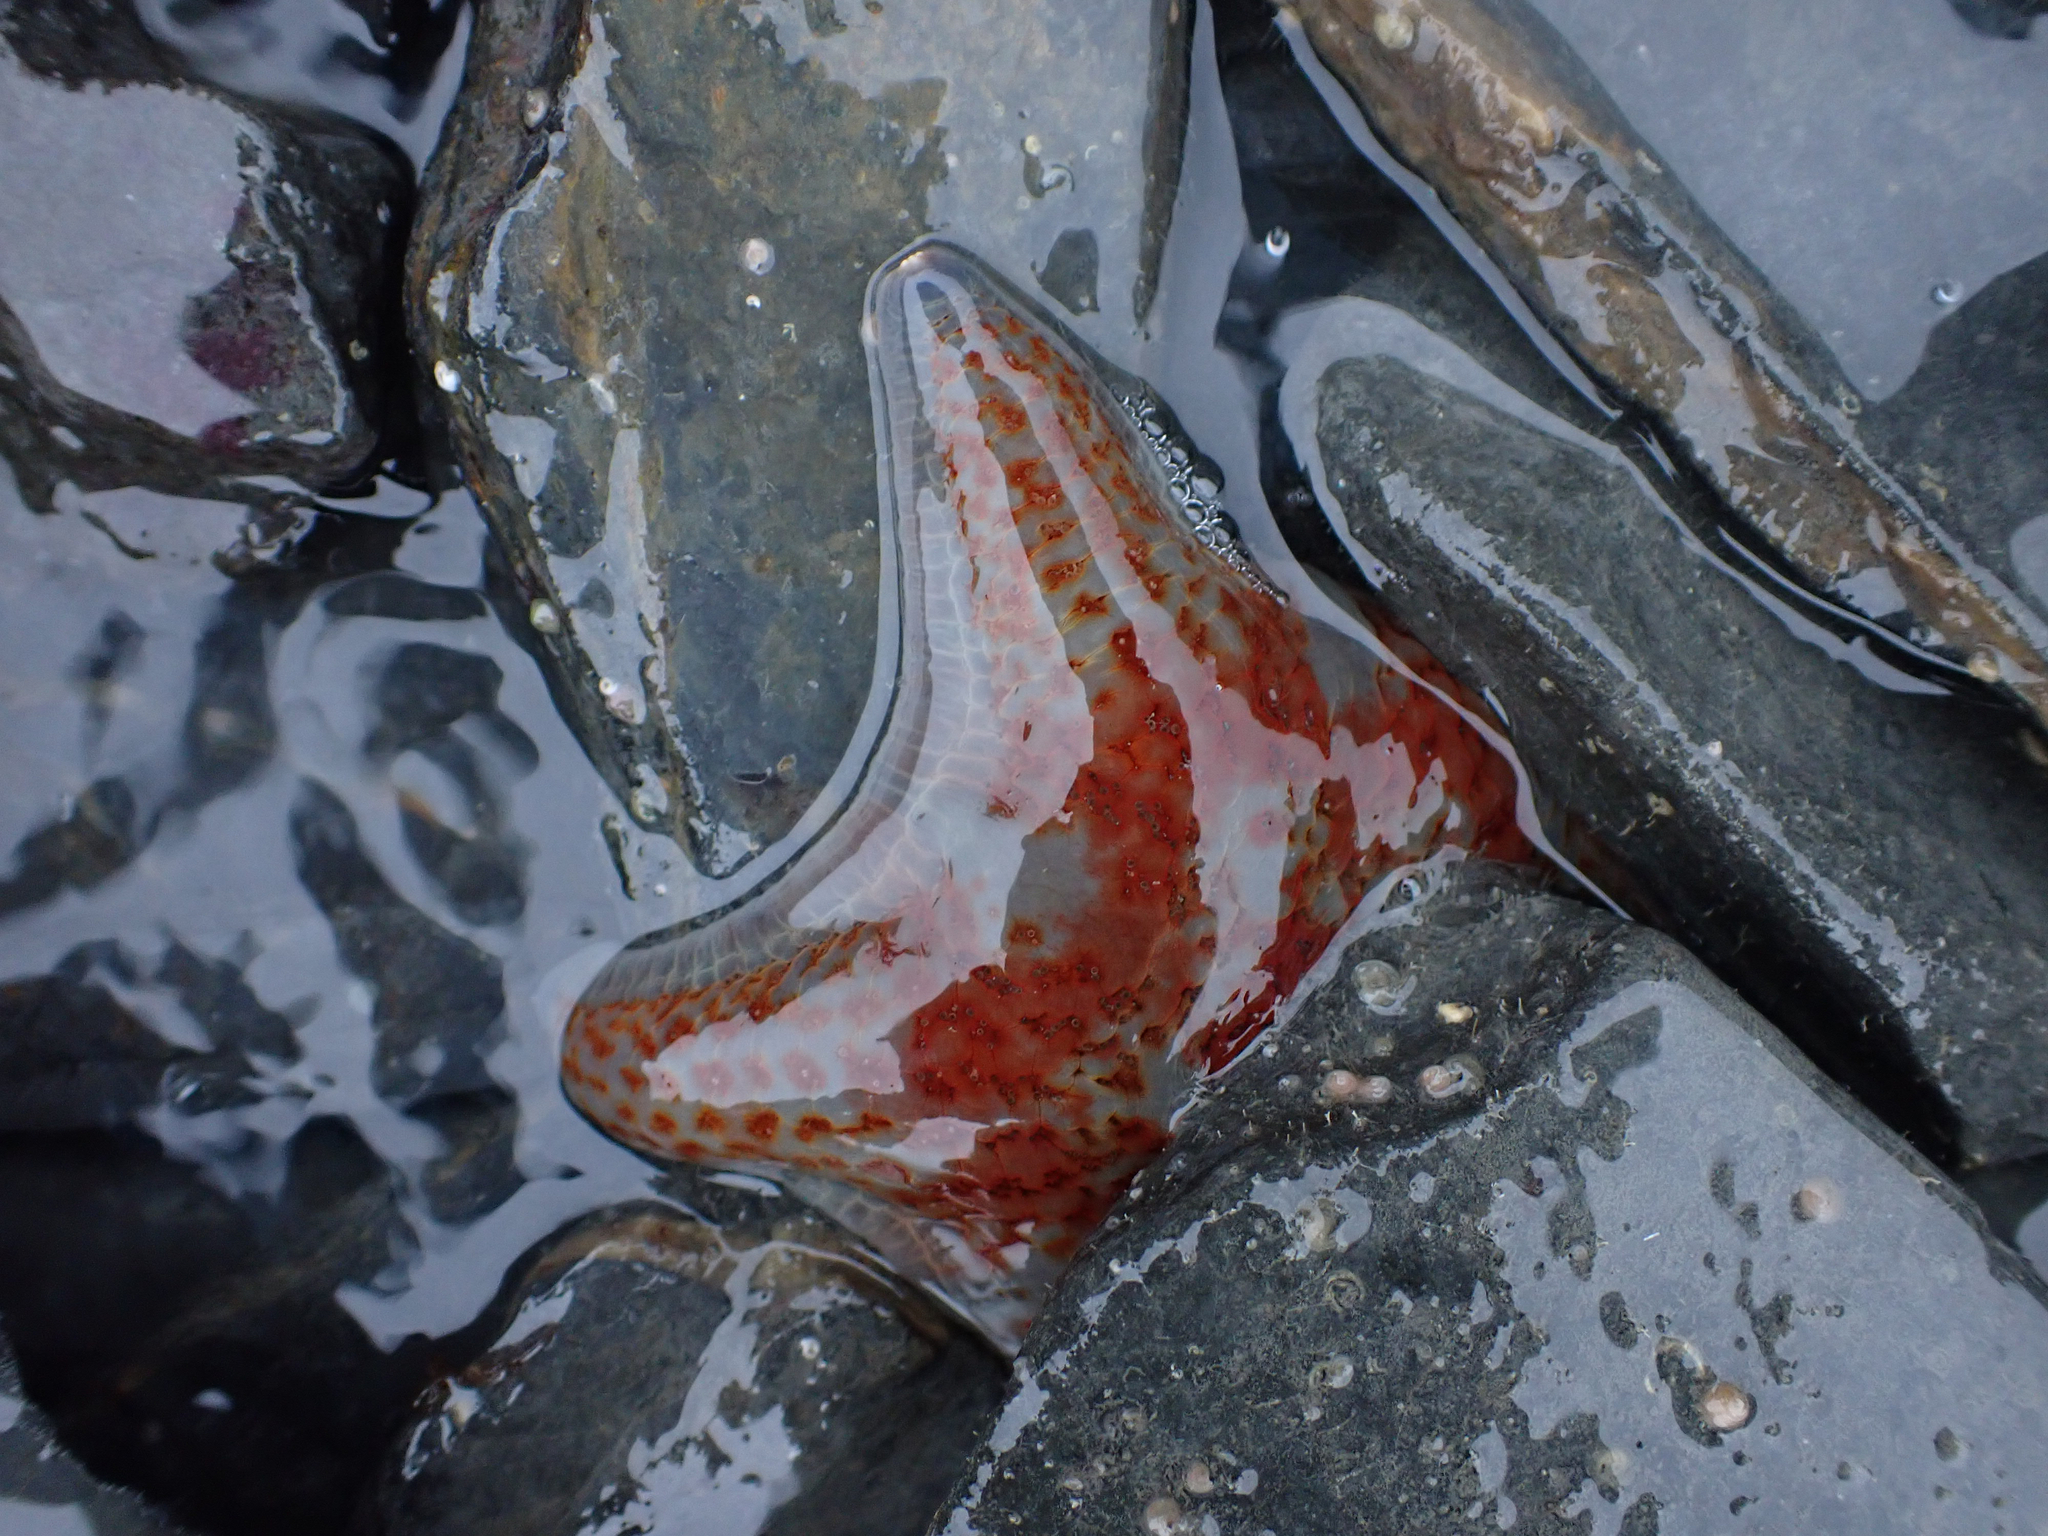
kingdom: Animalia
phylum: Echinodermata
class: Asteroidea
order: Valvatida
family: Asteropseidae
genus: Dermasterias
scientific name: Dermasterias imbricata
